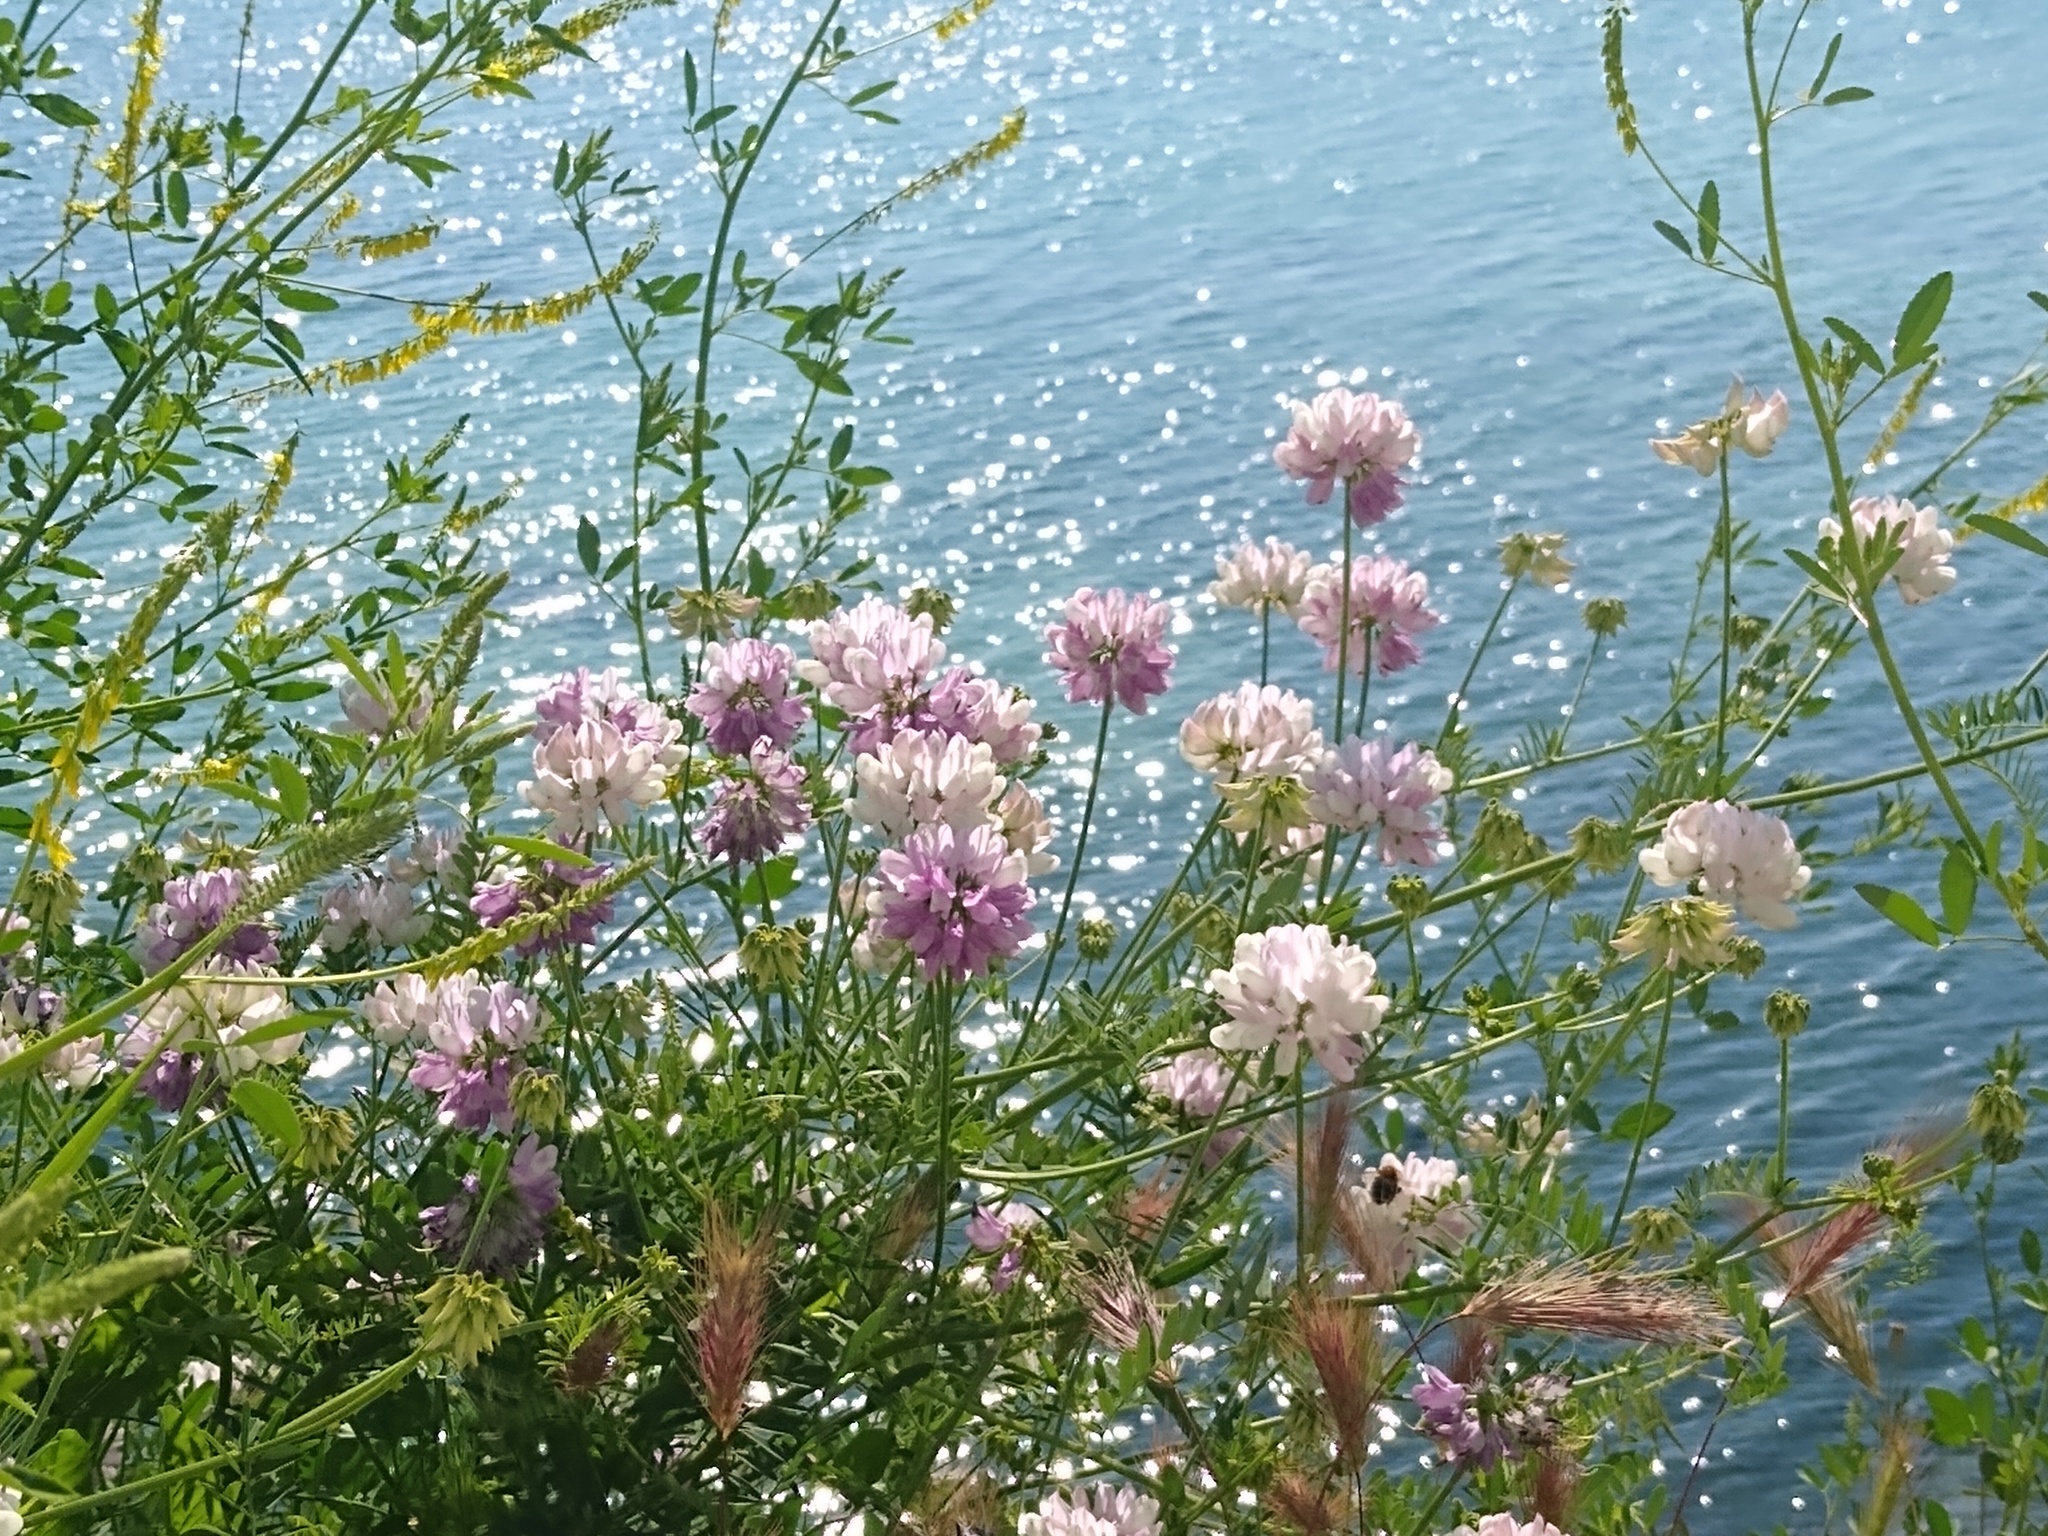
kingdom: Plantae
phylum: Tracheophyta
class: Magnoliopsida
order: Fabales
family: Fabaceae
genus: Coronilla
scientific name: Coronilla varia
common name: Crownvetch
